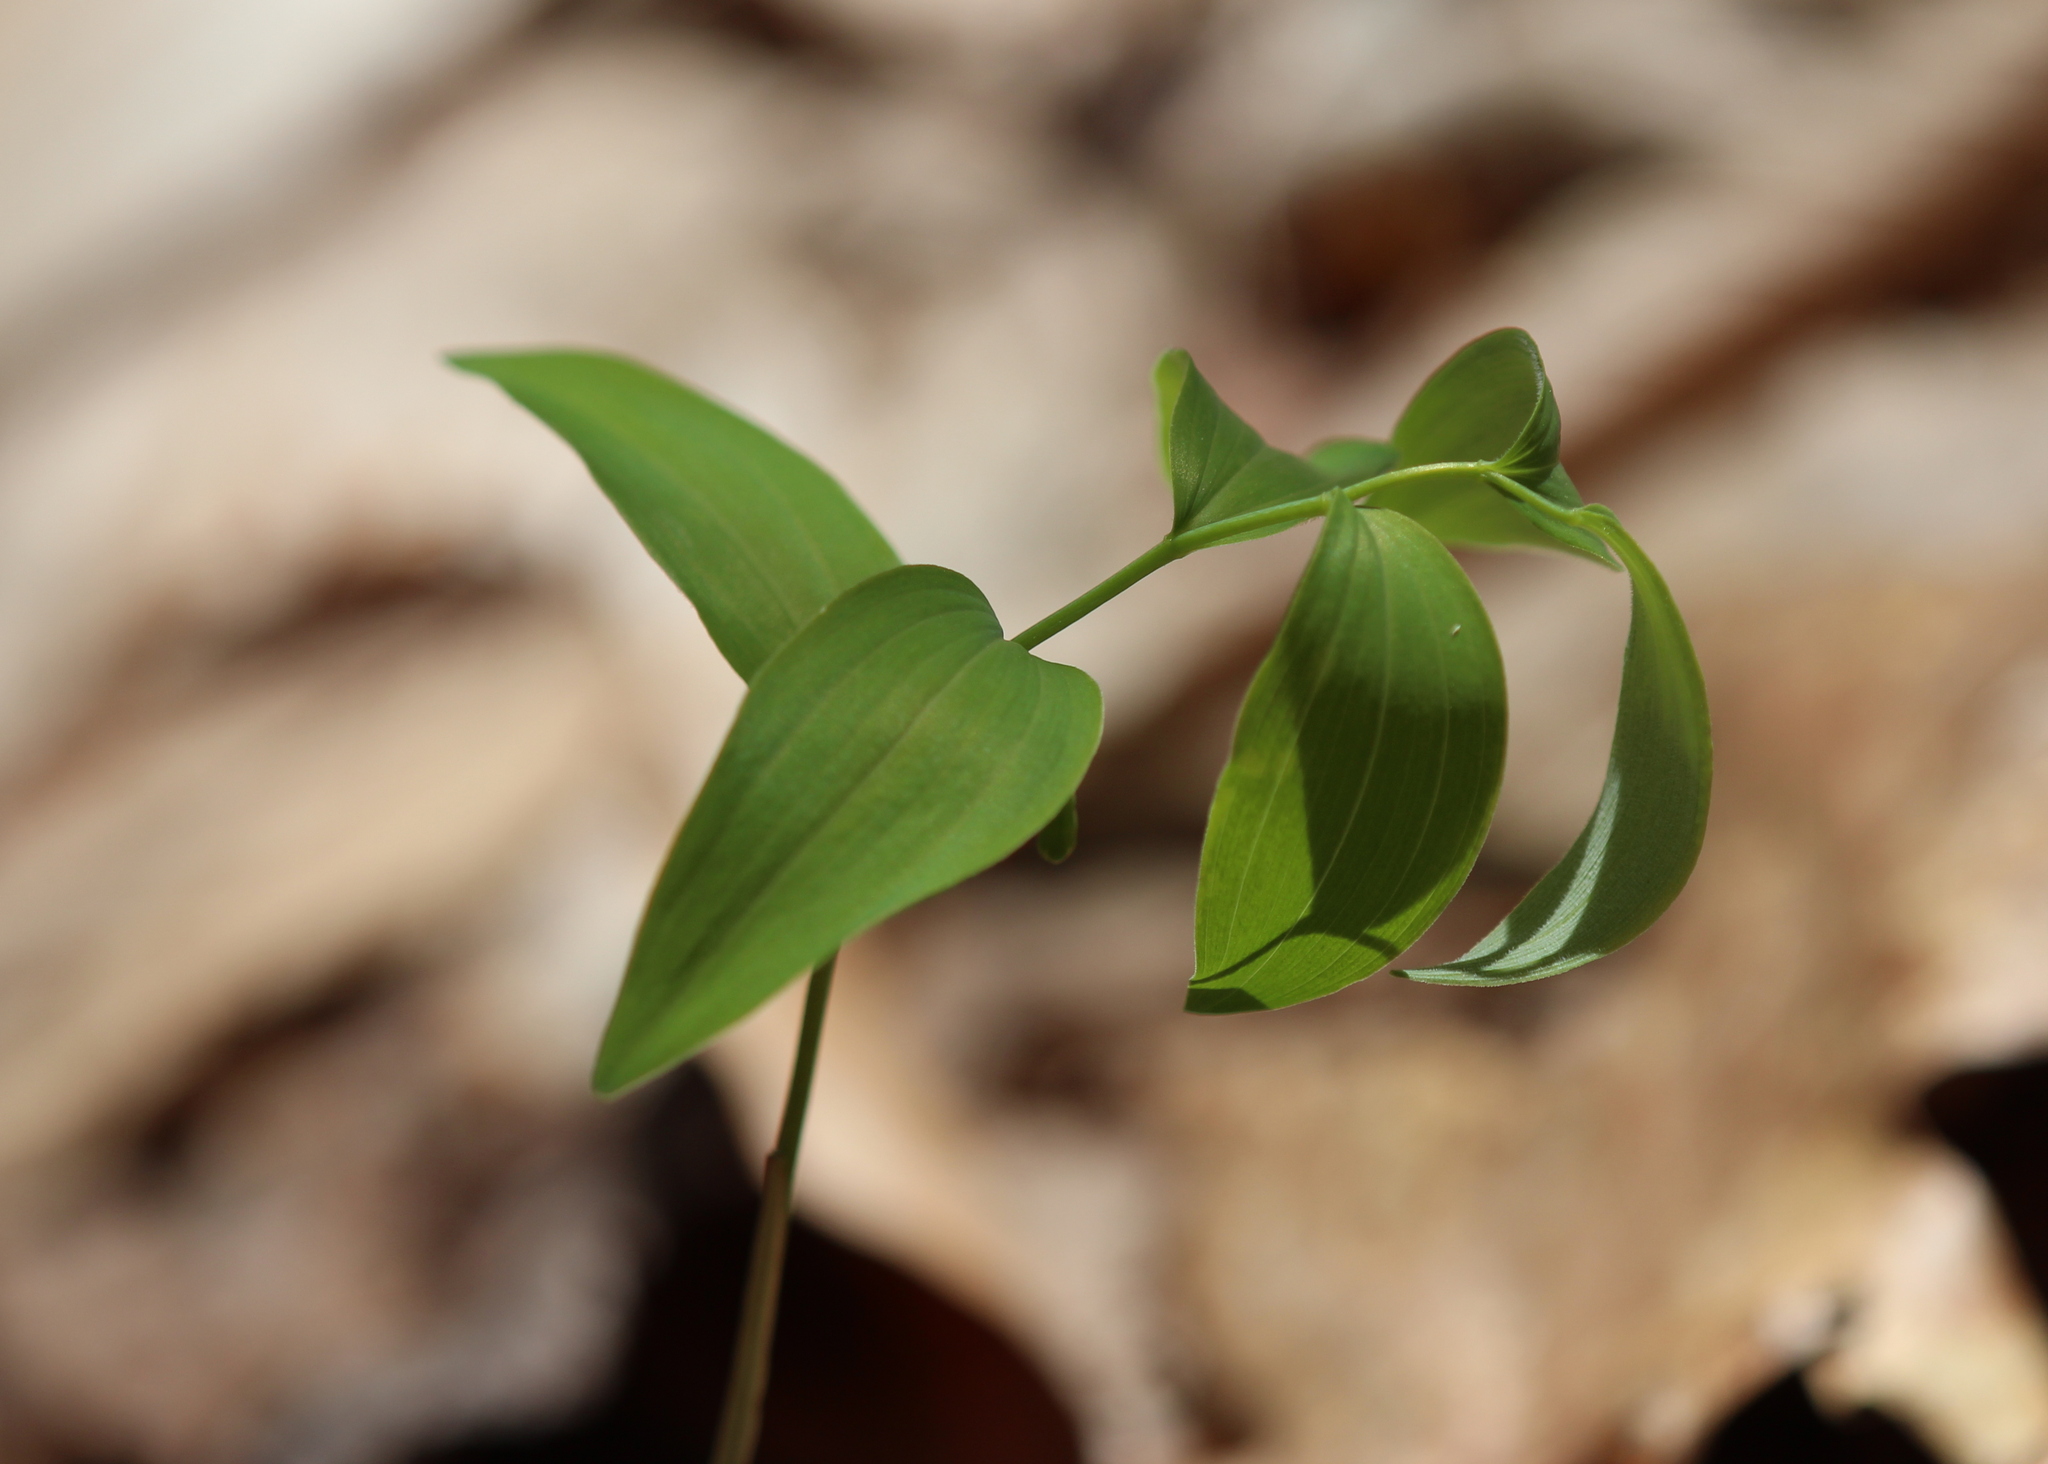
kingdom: Plantae
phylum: Tracheophyta
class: Liliopsida
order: Asparagales
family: Asparagaceae
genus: Polygonatum
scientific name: Polygonatum pubescens
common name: Downy solomon's seal
